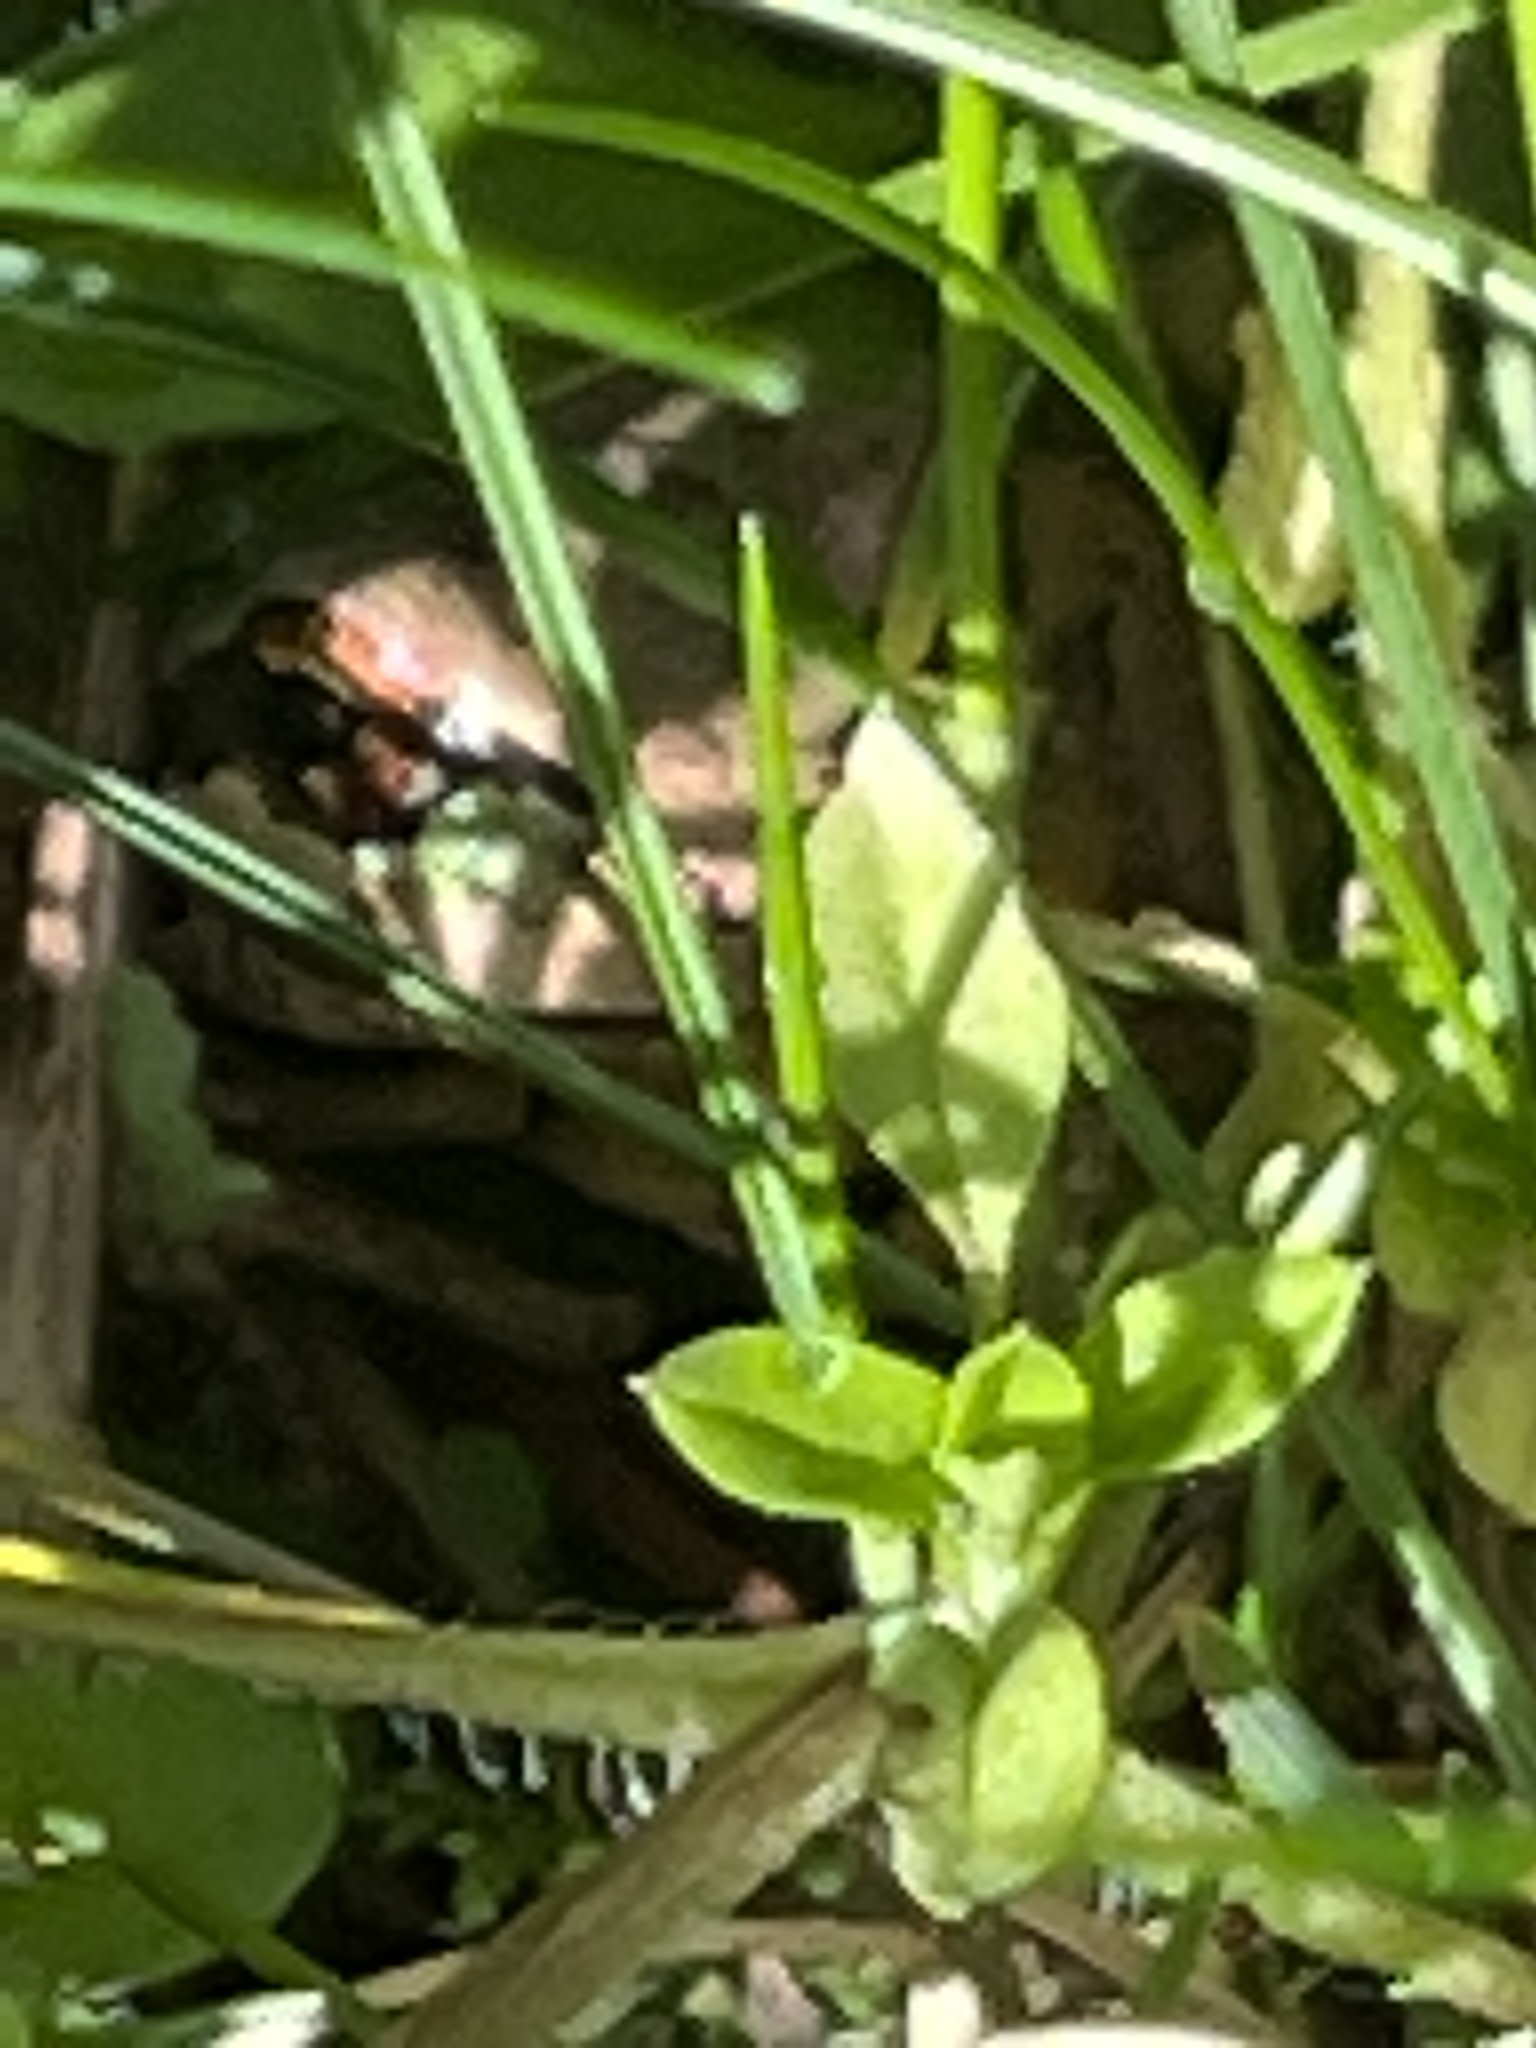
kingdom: Animalia
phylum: Chordata
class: Amphibia
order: Anura
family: Hylidae
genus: Pseudacris
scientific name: Pseudacris regilla
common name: Pacific chorus frog
